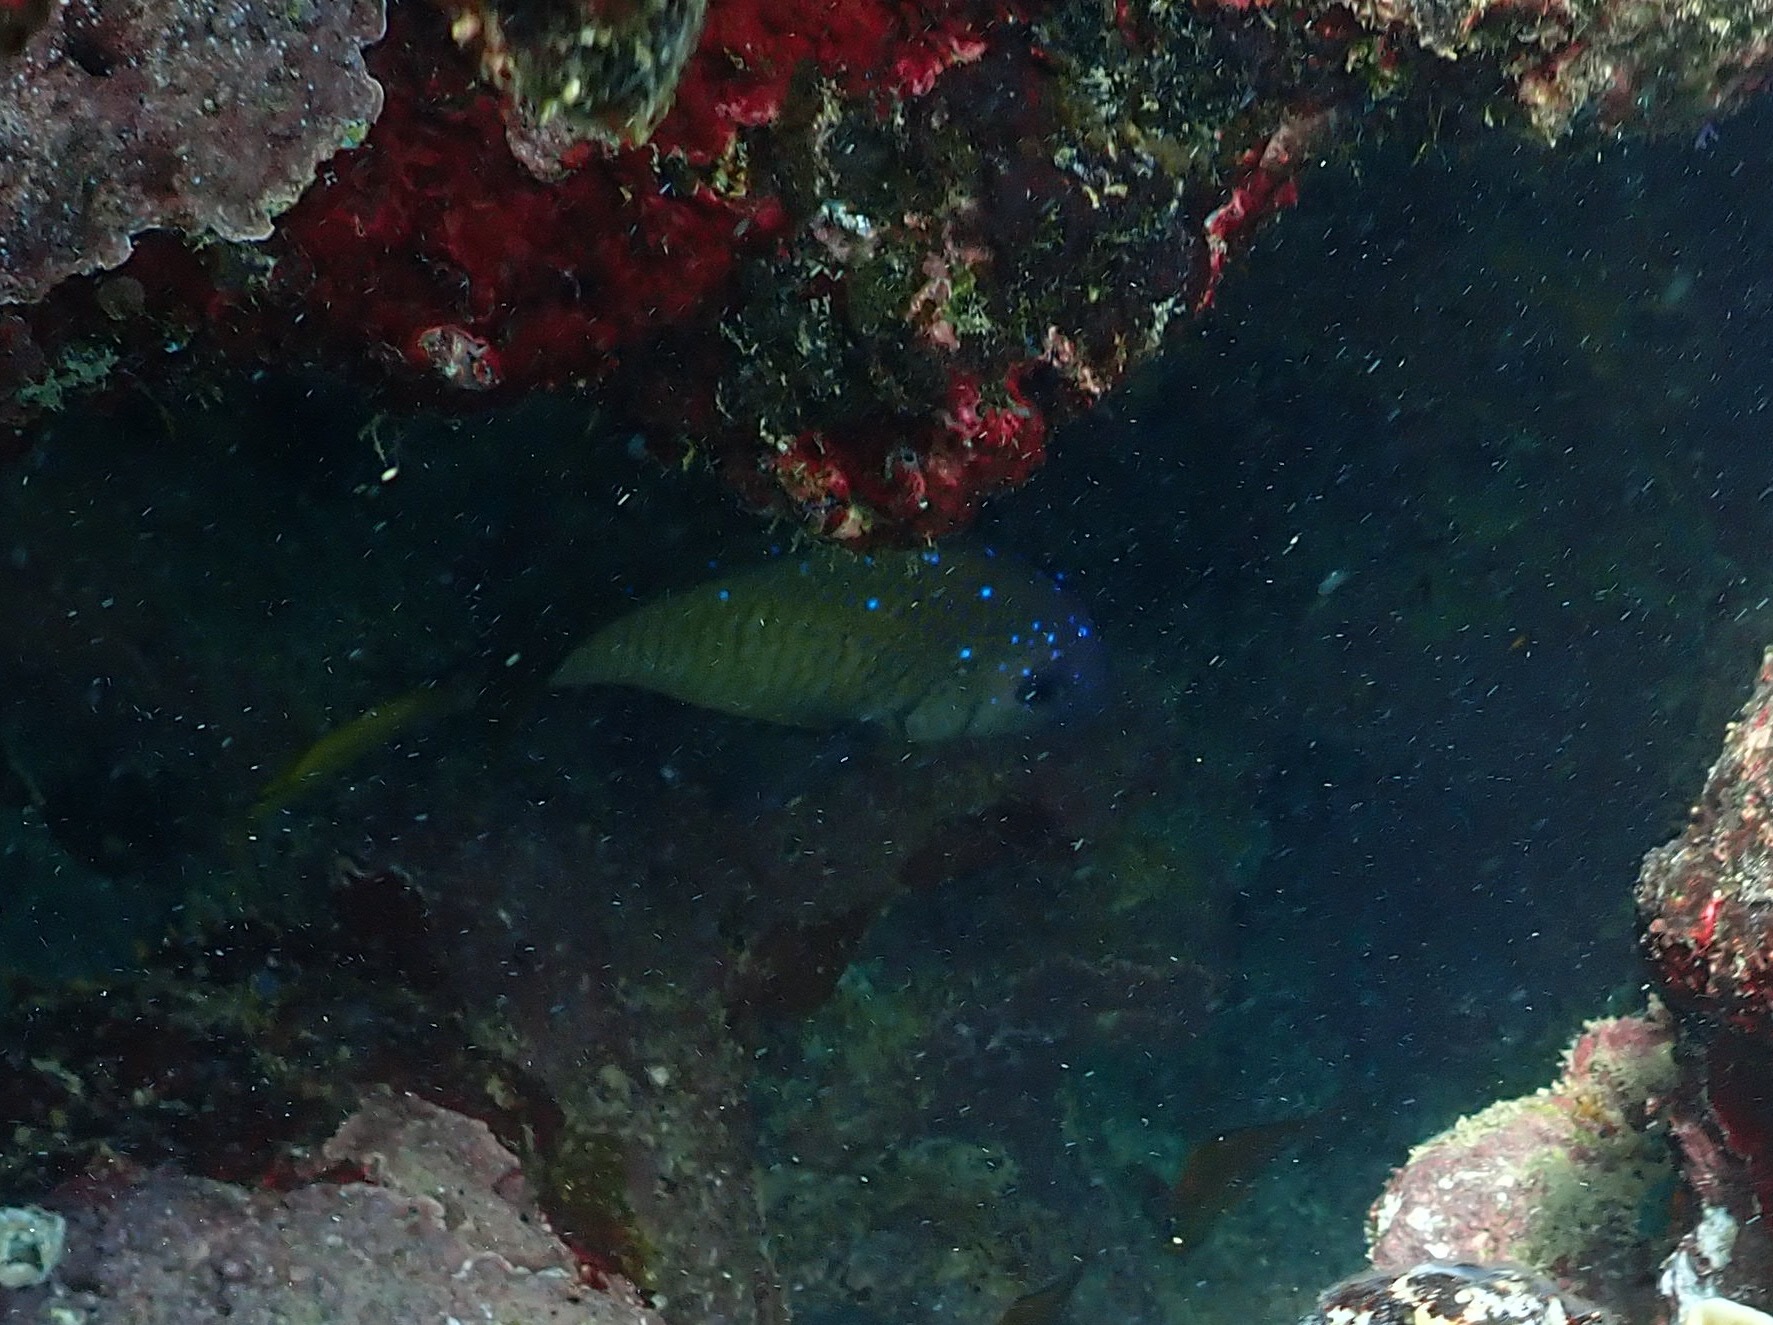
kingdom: Animalia
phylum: Chordata
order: Perciformes
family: Pomacentridae
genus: Microspathodon
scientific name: Microspathodon chrysurus
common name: Yellowtail damselfish
